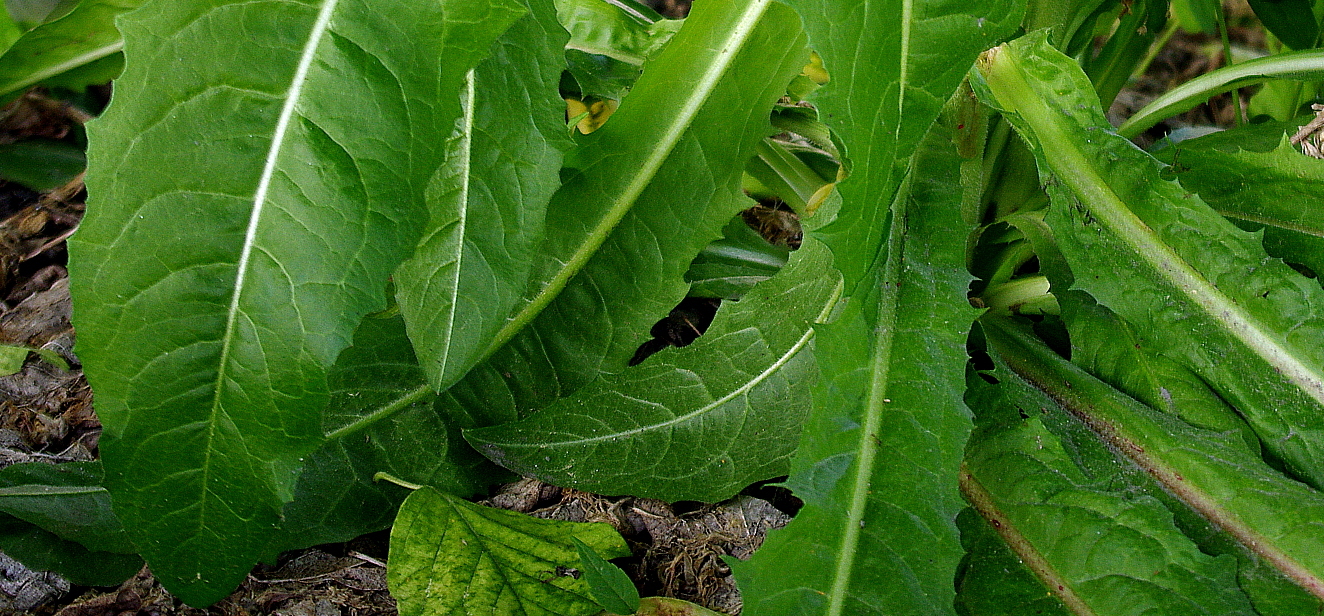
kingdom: Plantae
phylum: Tracheophyta
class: Magnoliopsida
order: Asterales
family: Asteraceae
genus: Cichorium
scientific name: Cichorium intybus
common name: Chicory
